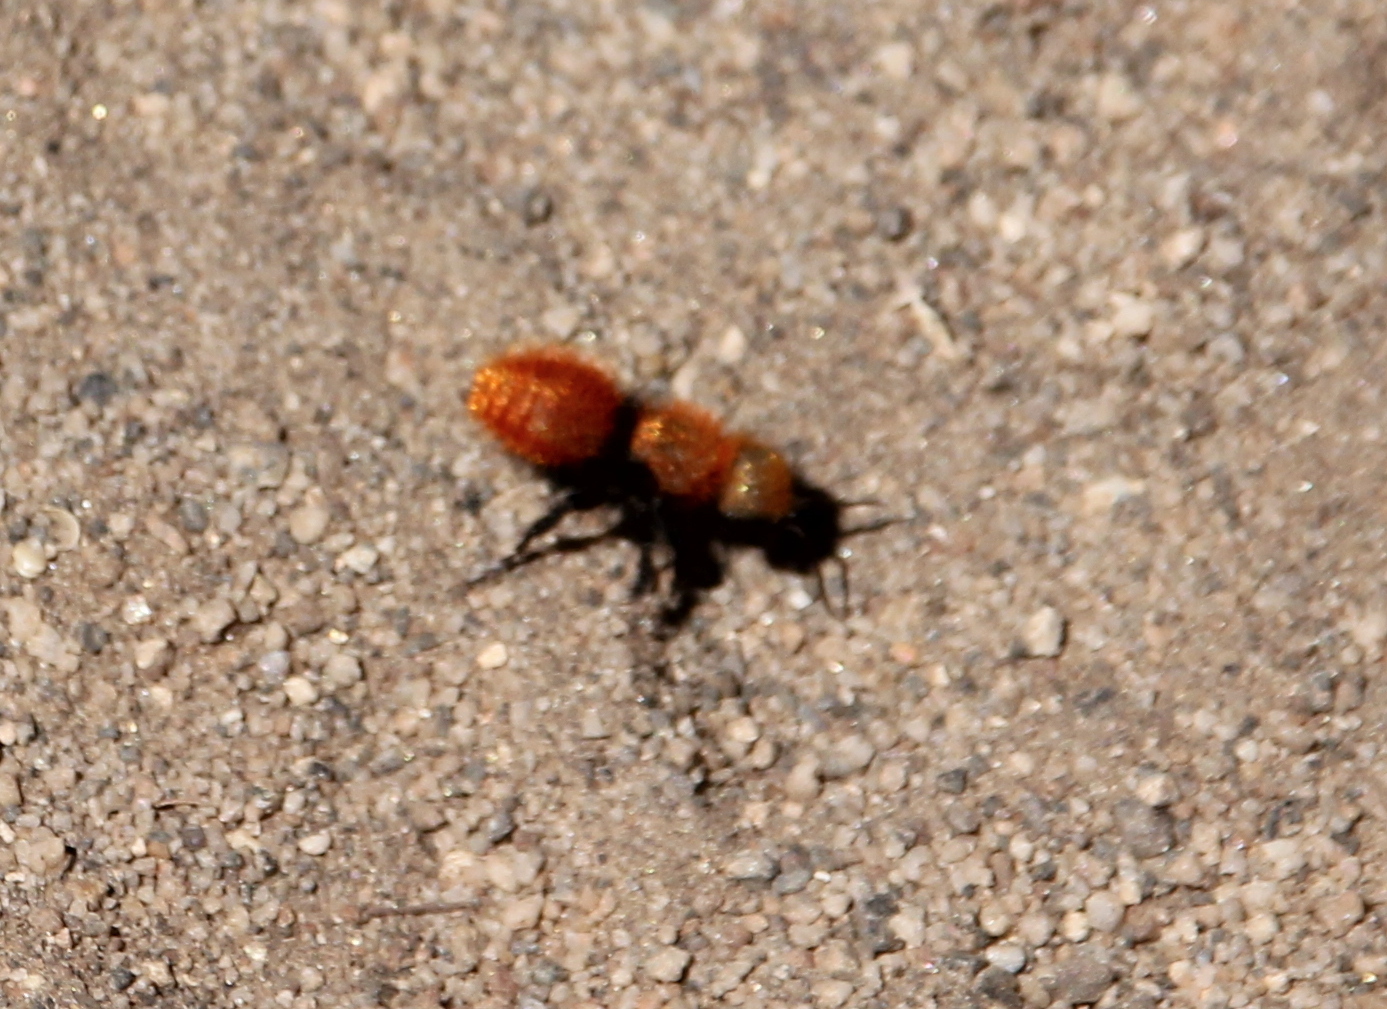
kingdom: Animalia
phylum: Arthropoda
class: Insecta
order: Hymenoptera
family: Mutillidae
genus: Dasymutilla
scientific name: Dasymutilla
